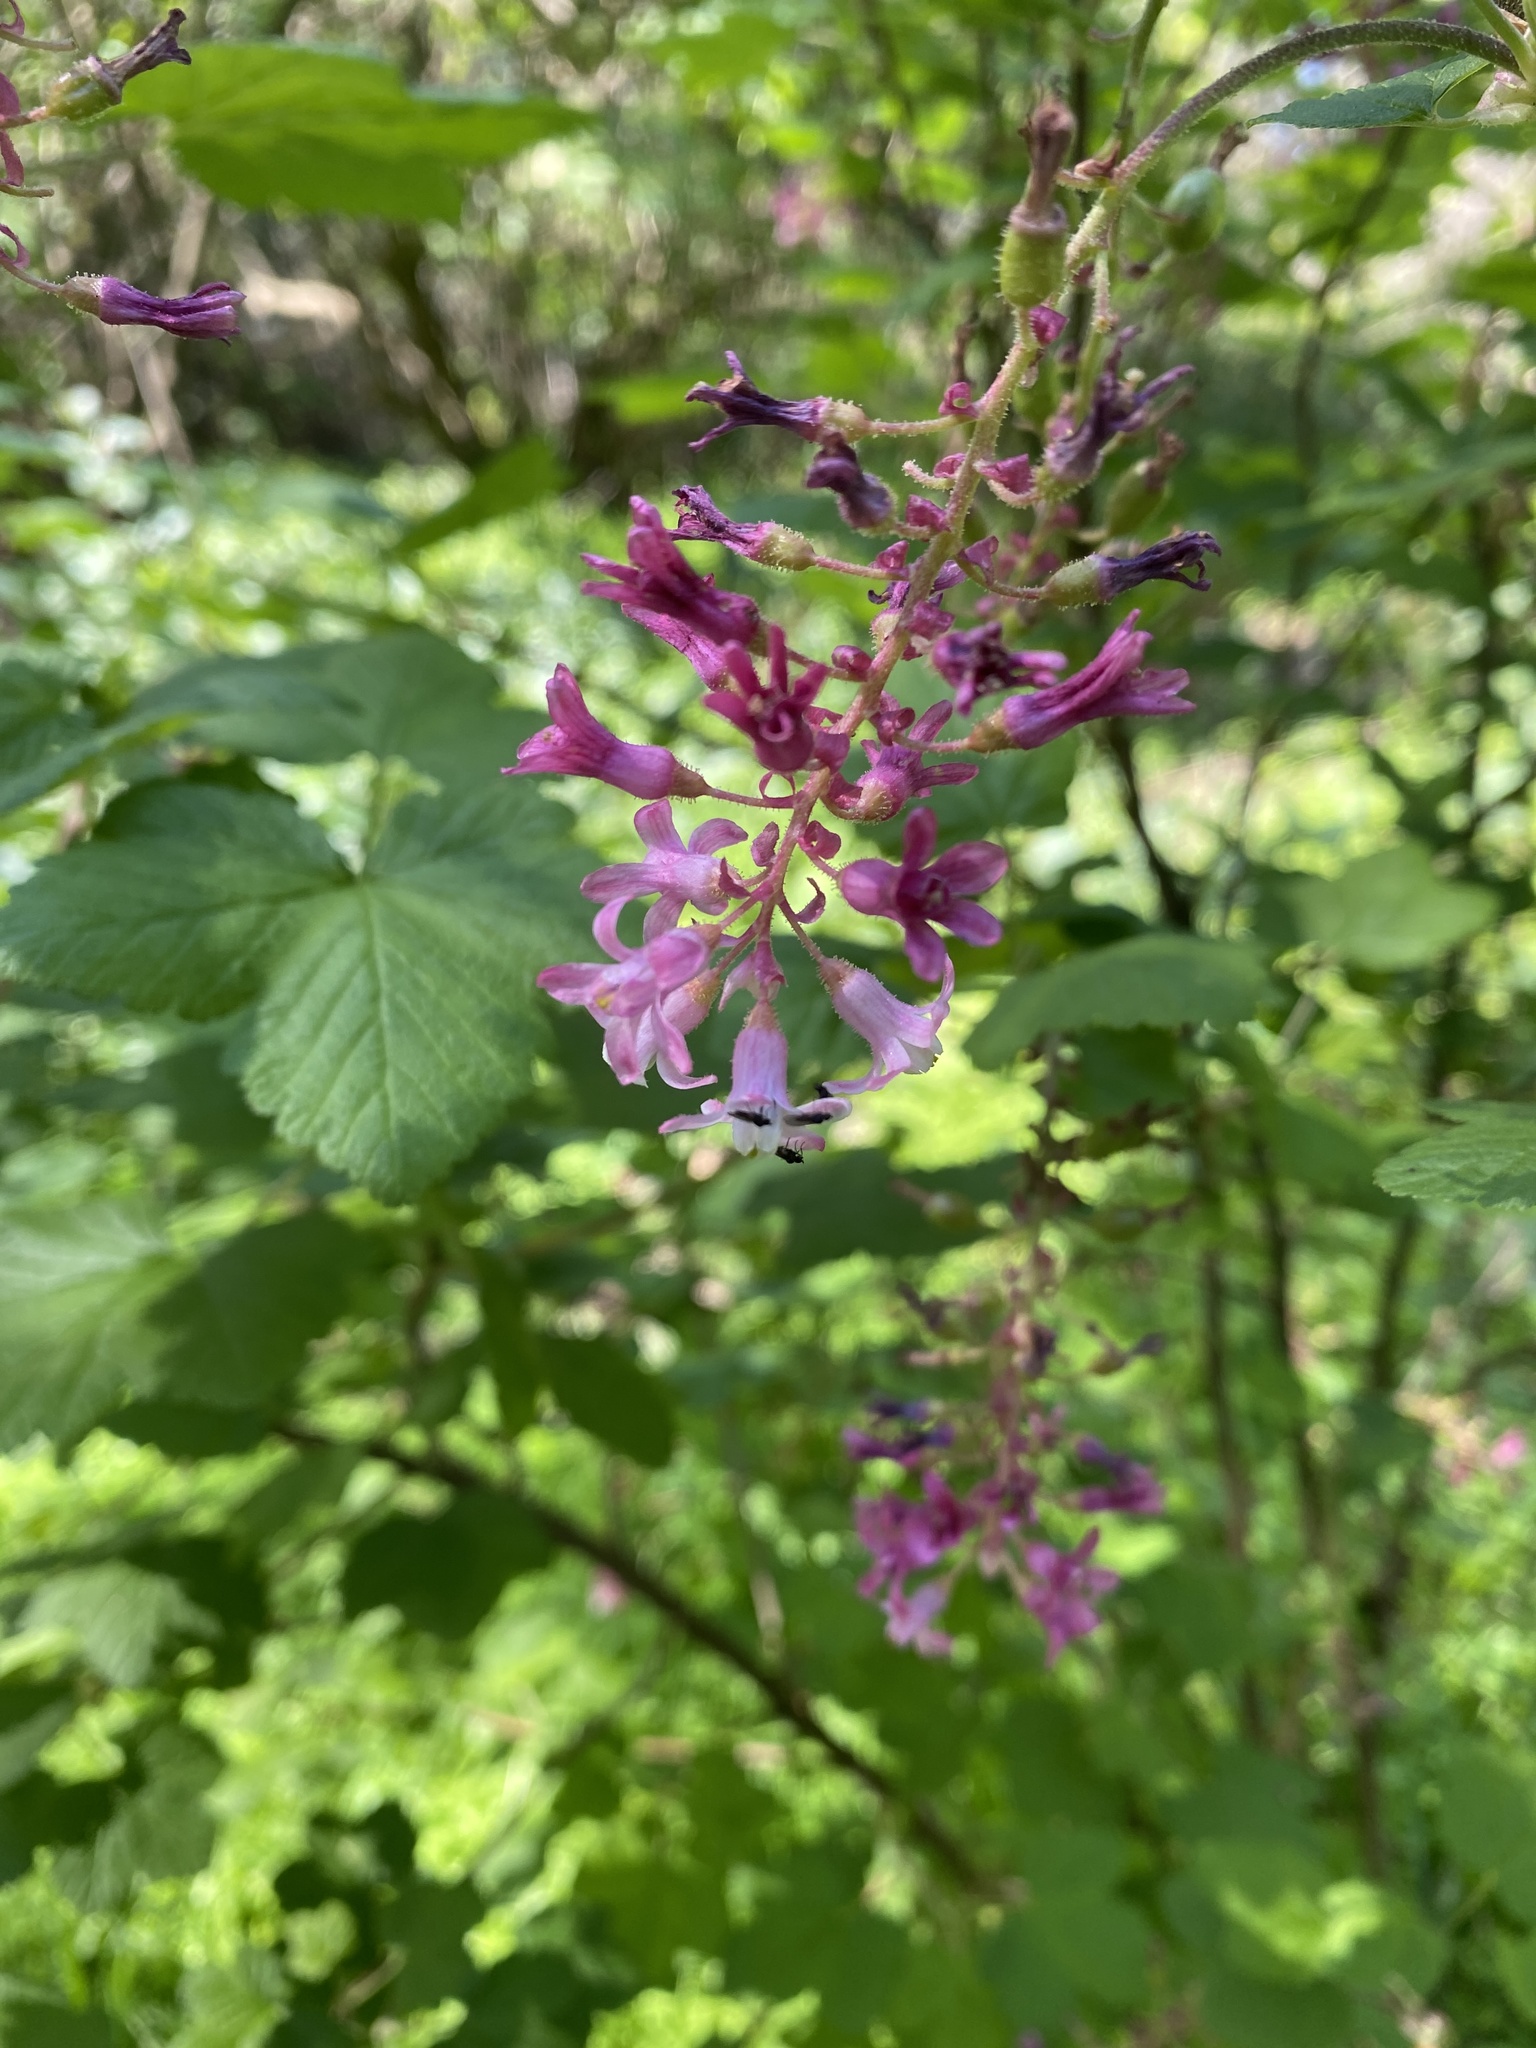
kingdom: Plantae
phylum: Tracheophyta
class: Magnoliopsida
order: Saxifragales
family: Grossulariaceae
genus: Ribes
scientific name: Ribes sanguineum
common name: Flowering currant
